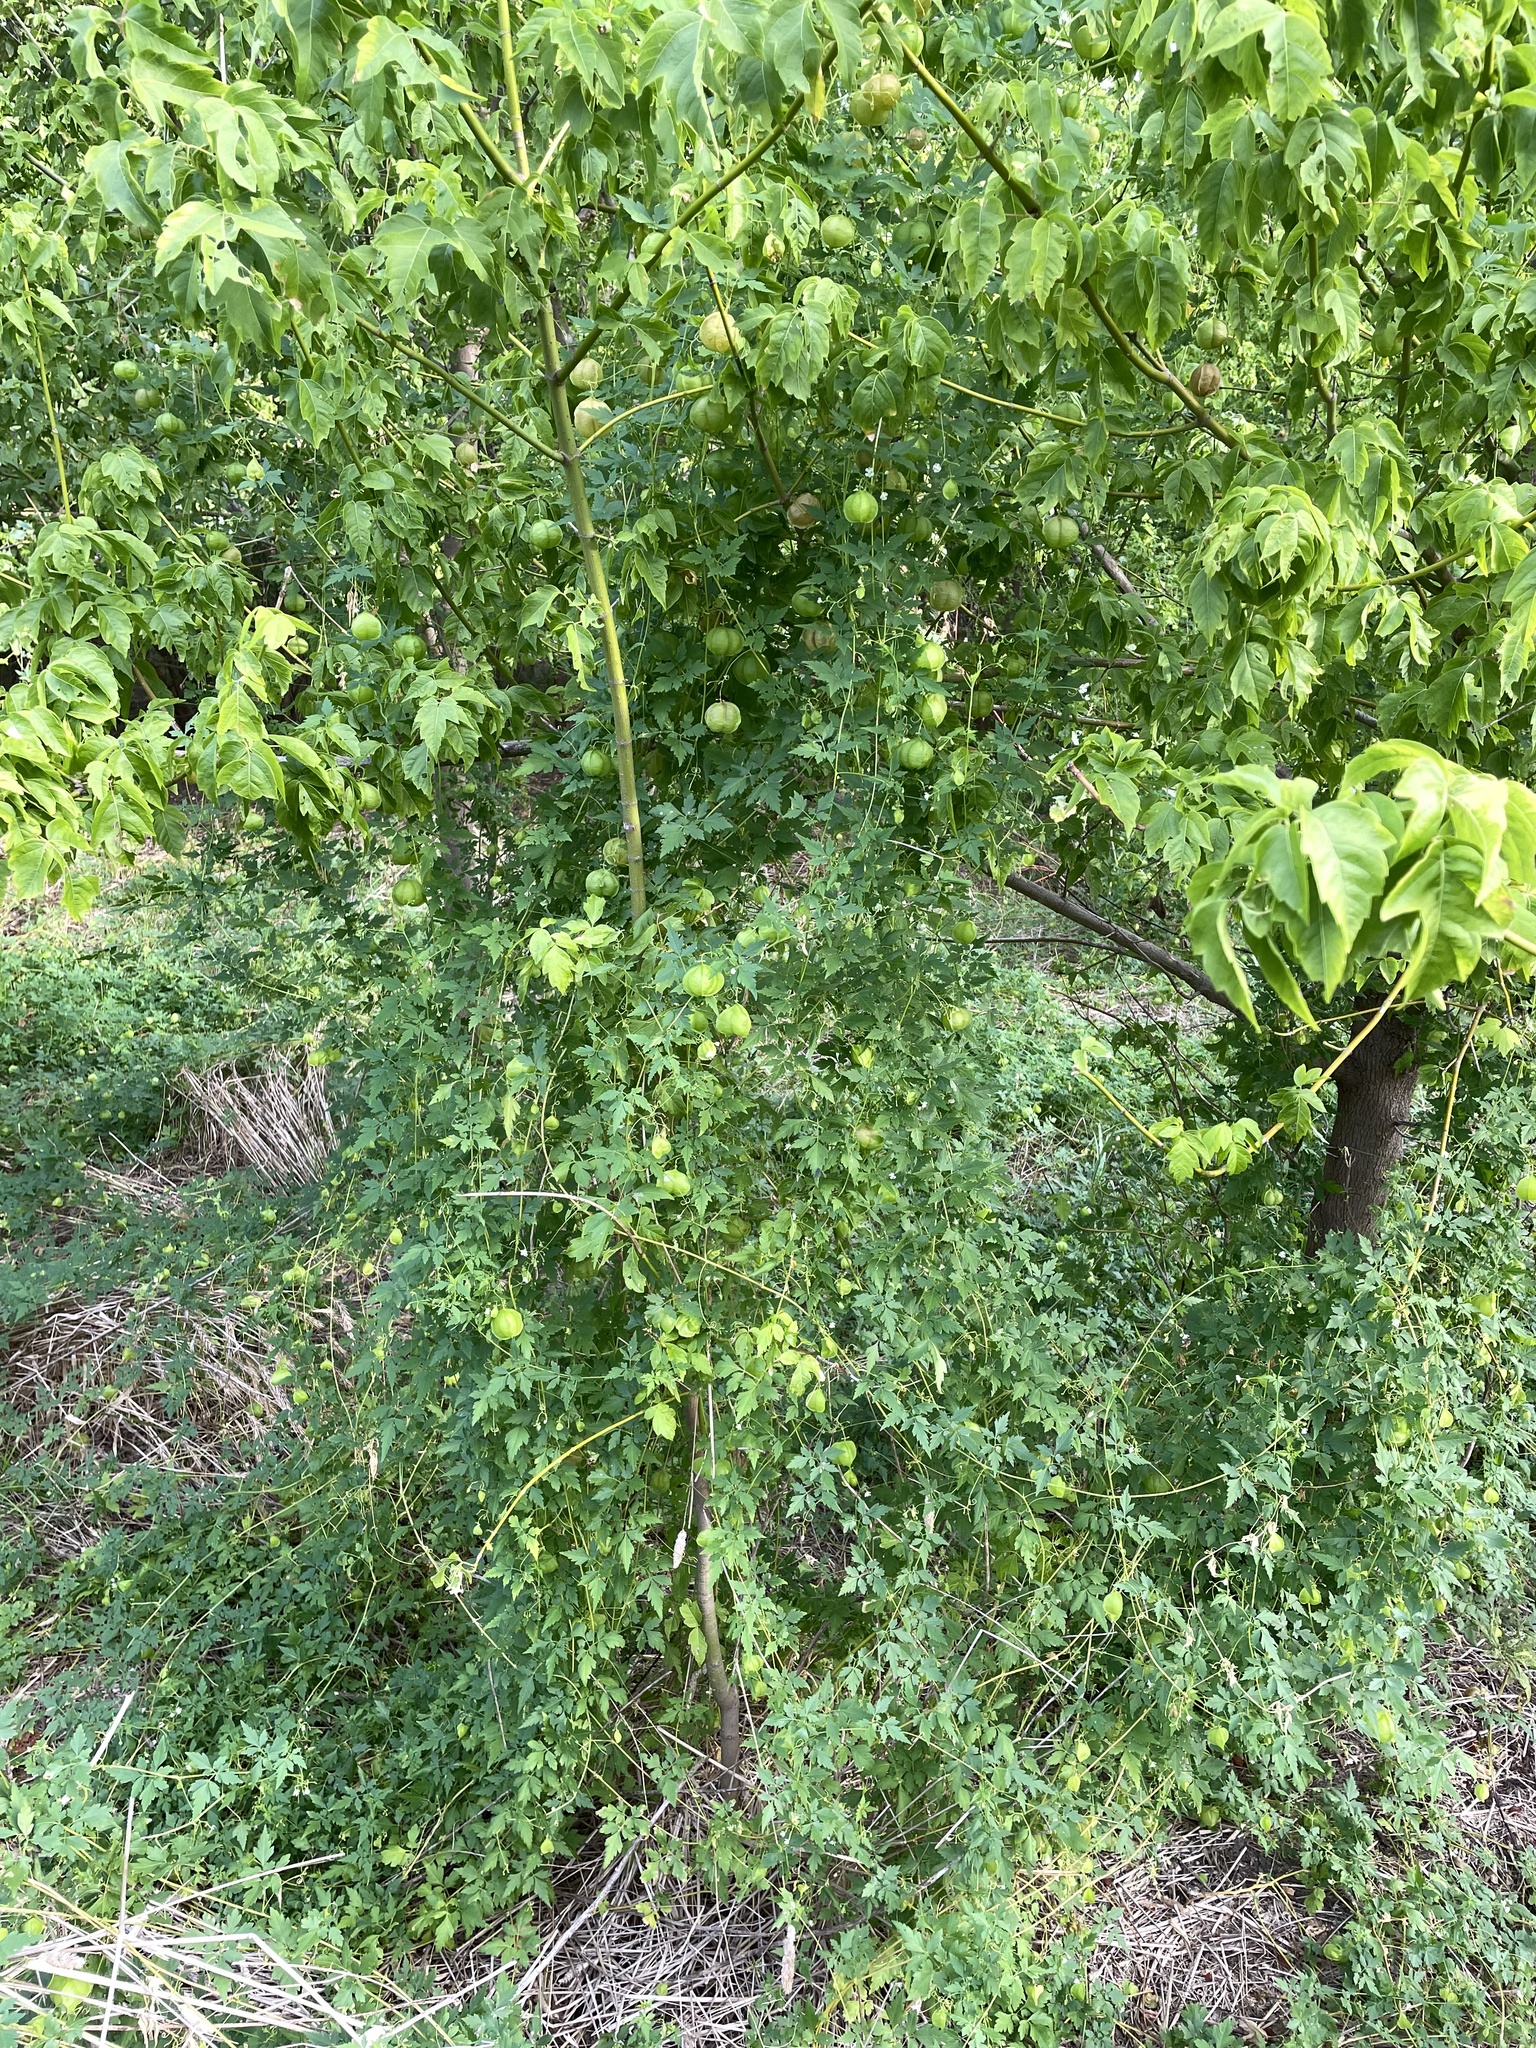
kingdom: Plantae
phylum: Tracheophyta
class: Magnoliopsida
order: Sapindales
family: Sapindaceae
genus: Cardiospermum
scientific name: Cardiospermum halicacabum
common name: Balloon vine
